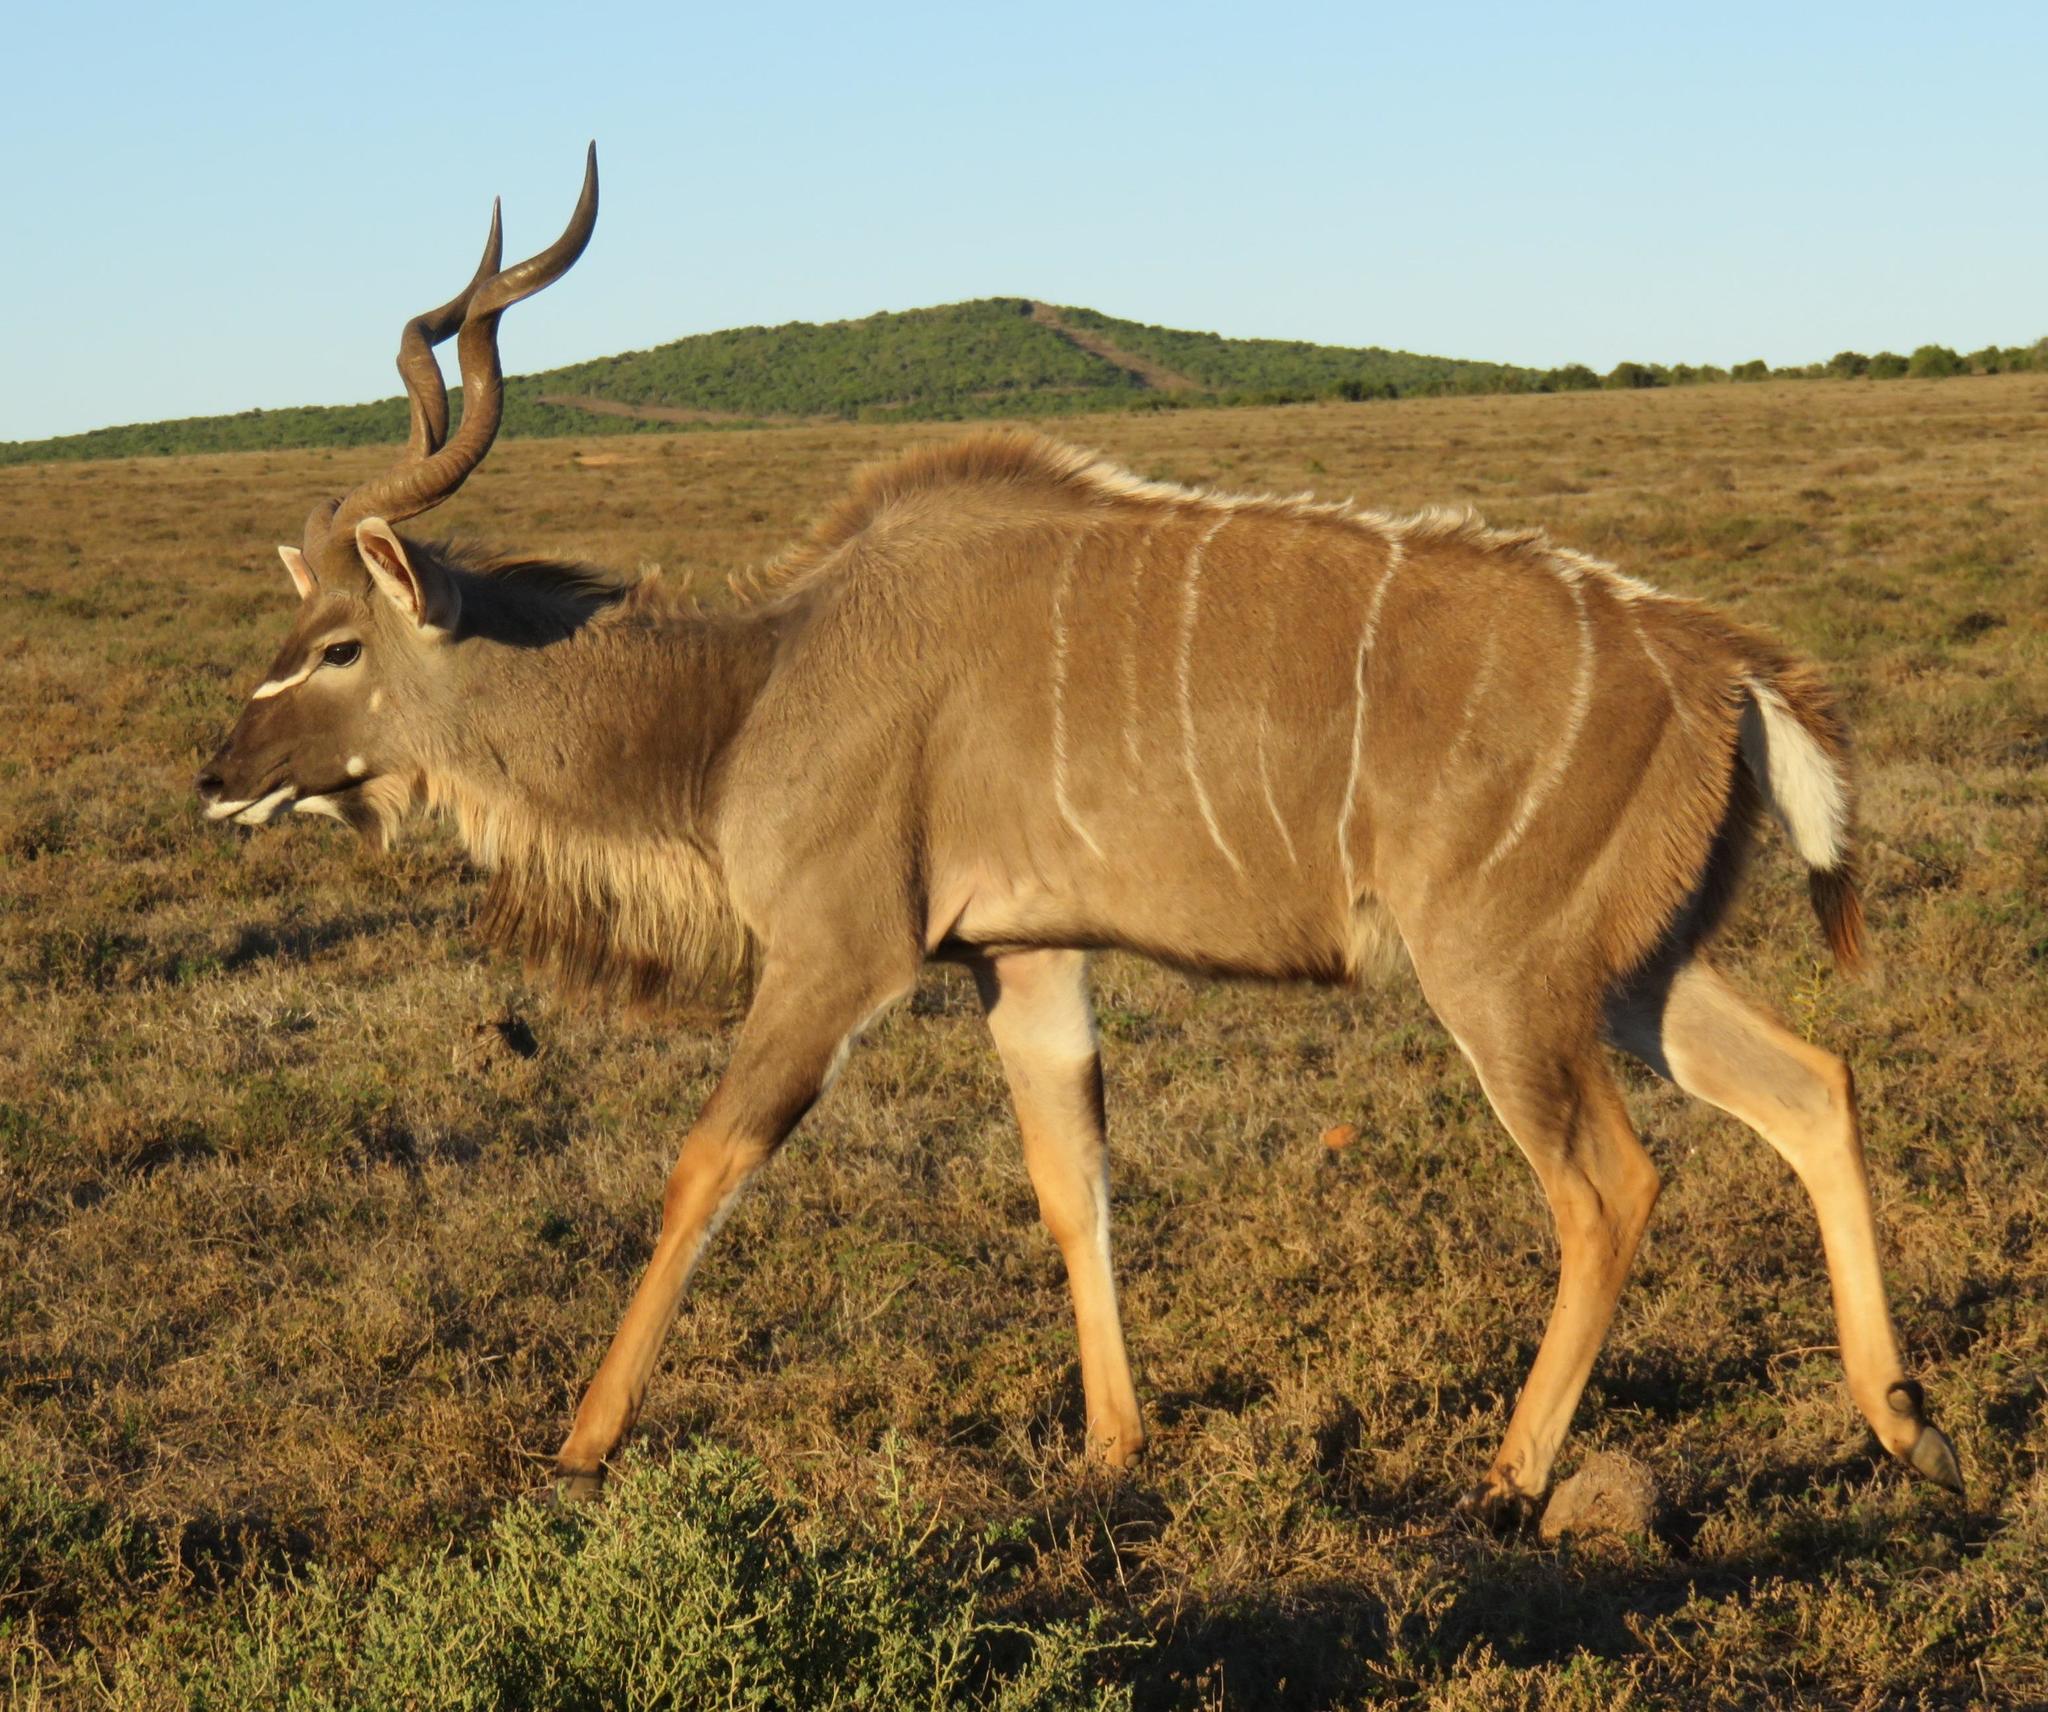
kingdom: Animalia
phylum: Chordata
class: Mammalia
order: Artiodactyla
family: Bovidae
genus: Tragelaphus
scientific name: Tragelaphus strepsiceros
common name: Greater kudu
